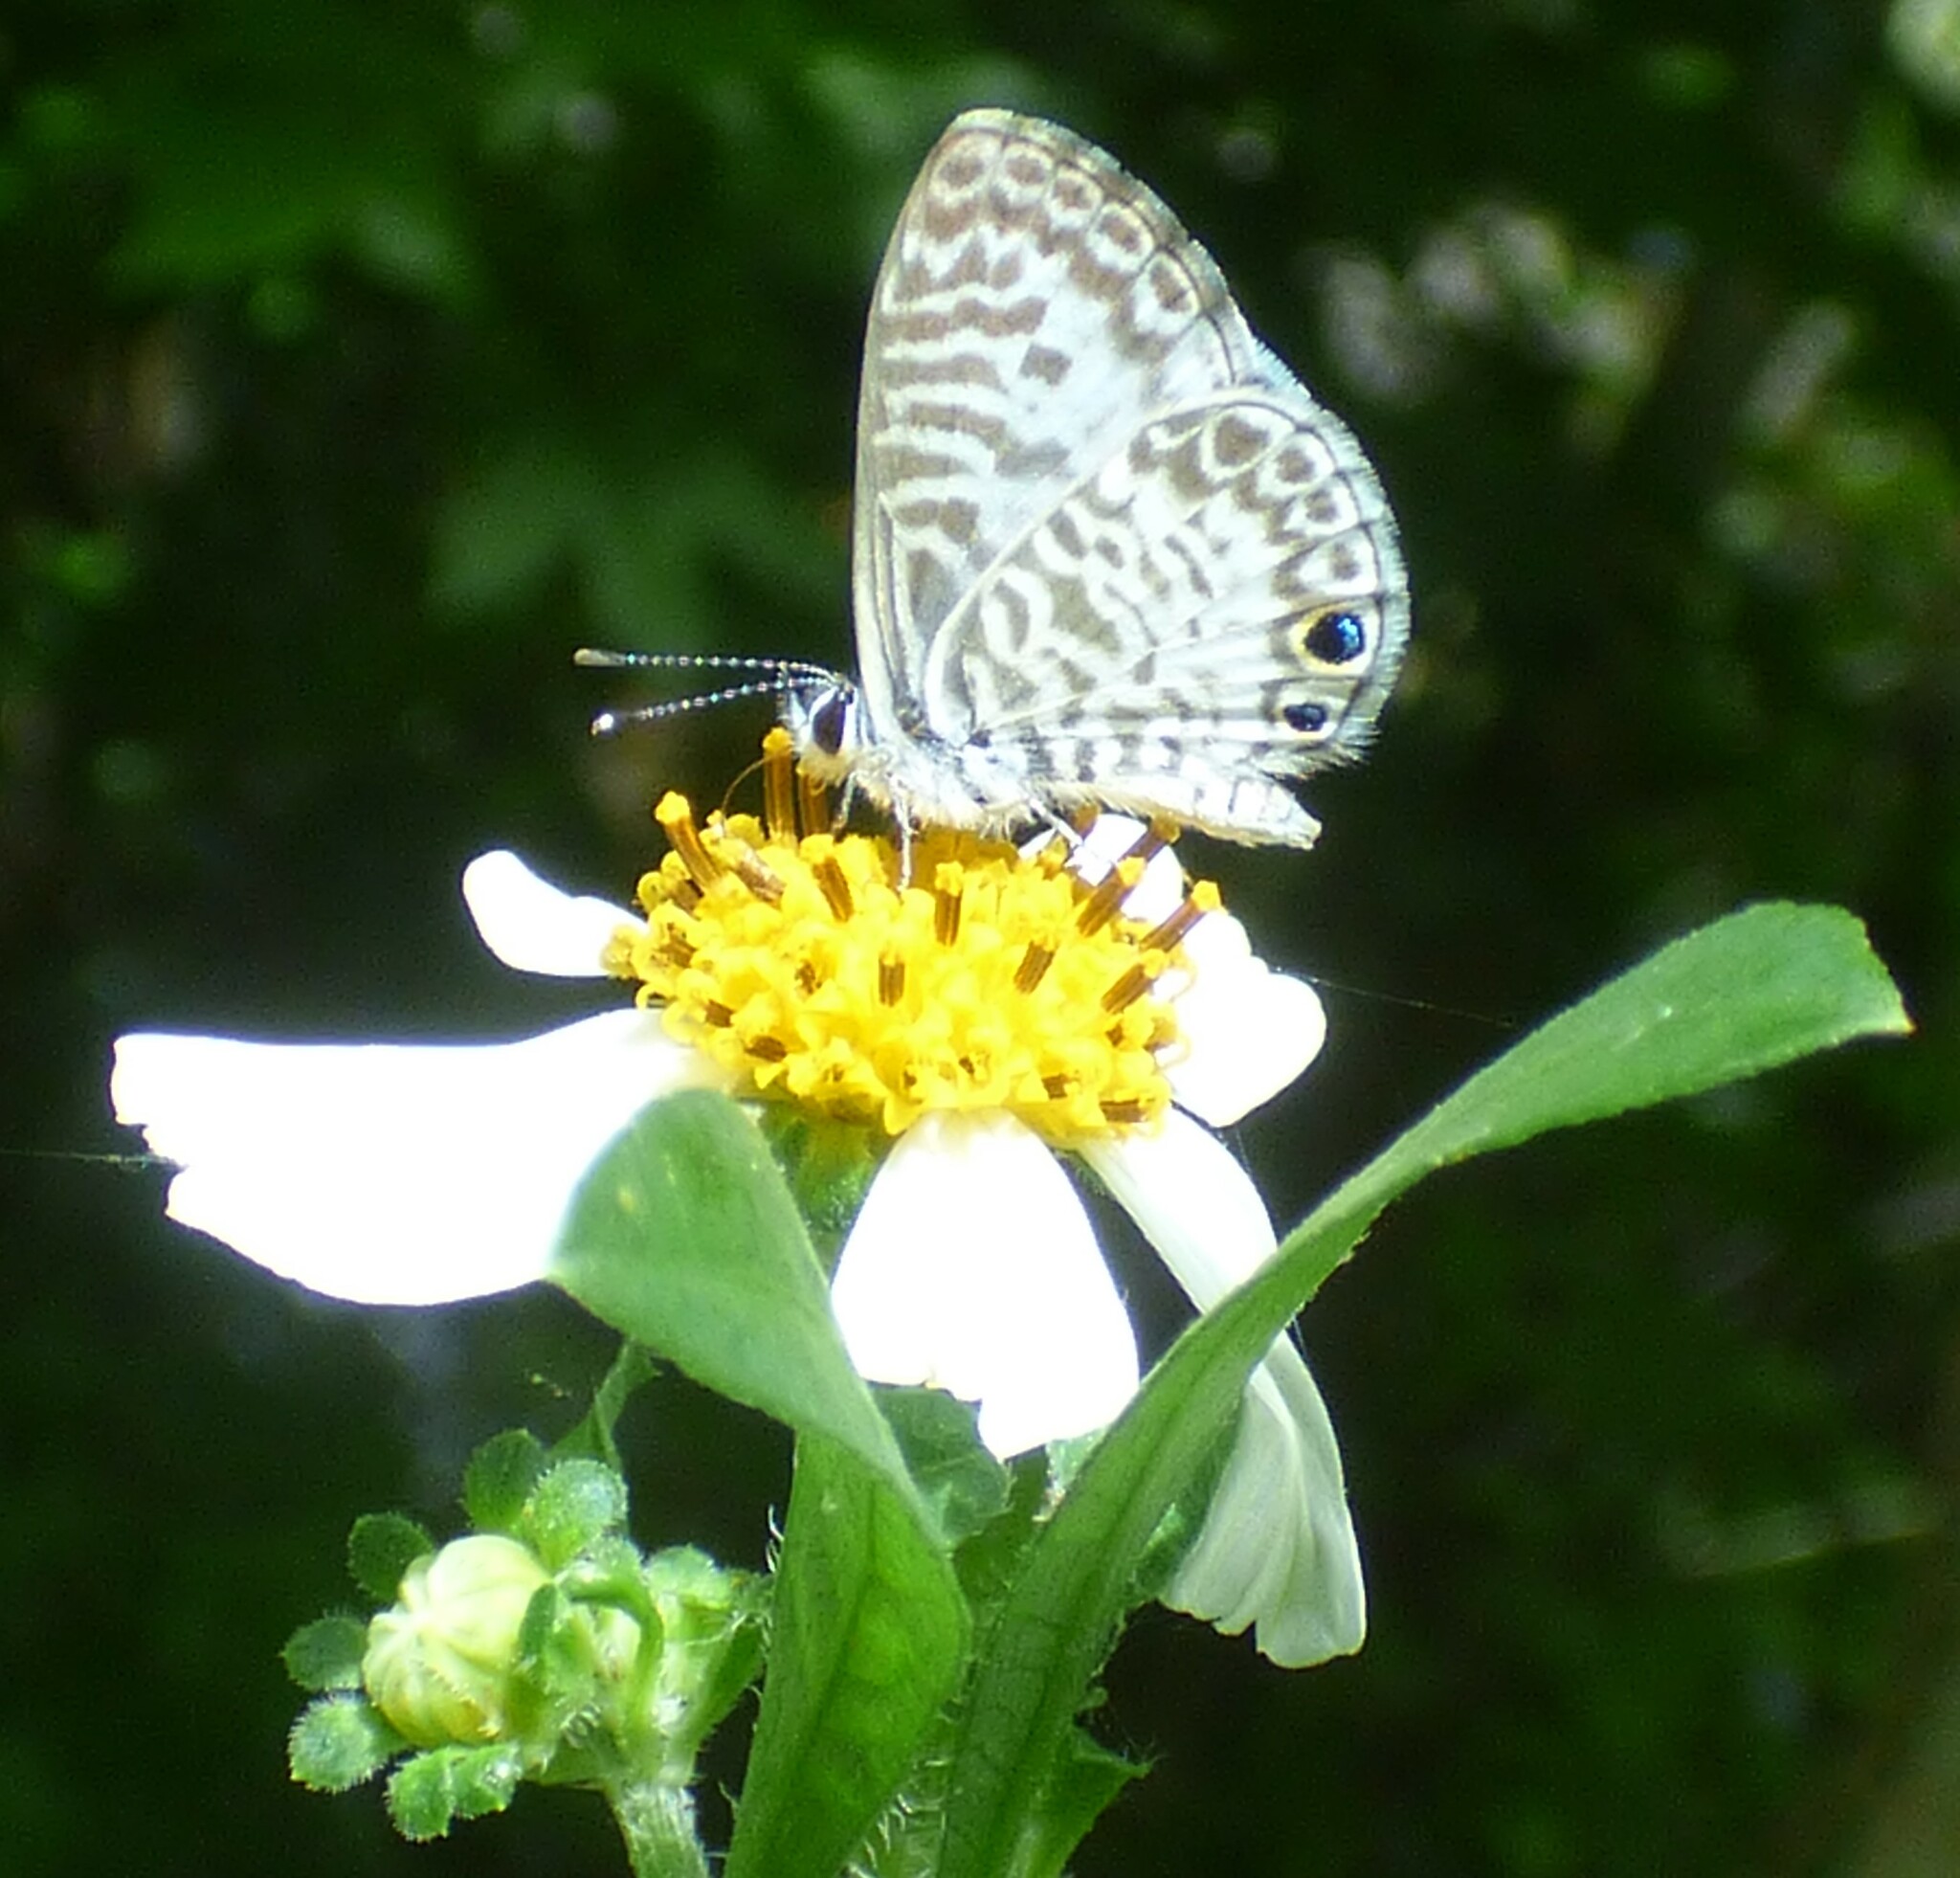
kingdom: Animalia
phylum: Arthropoda
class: Insecta
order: Lepidoptera
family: Lycaenidae
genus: Leptotes
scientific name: Leptotes cassius
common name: Cassius blue
